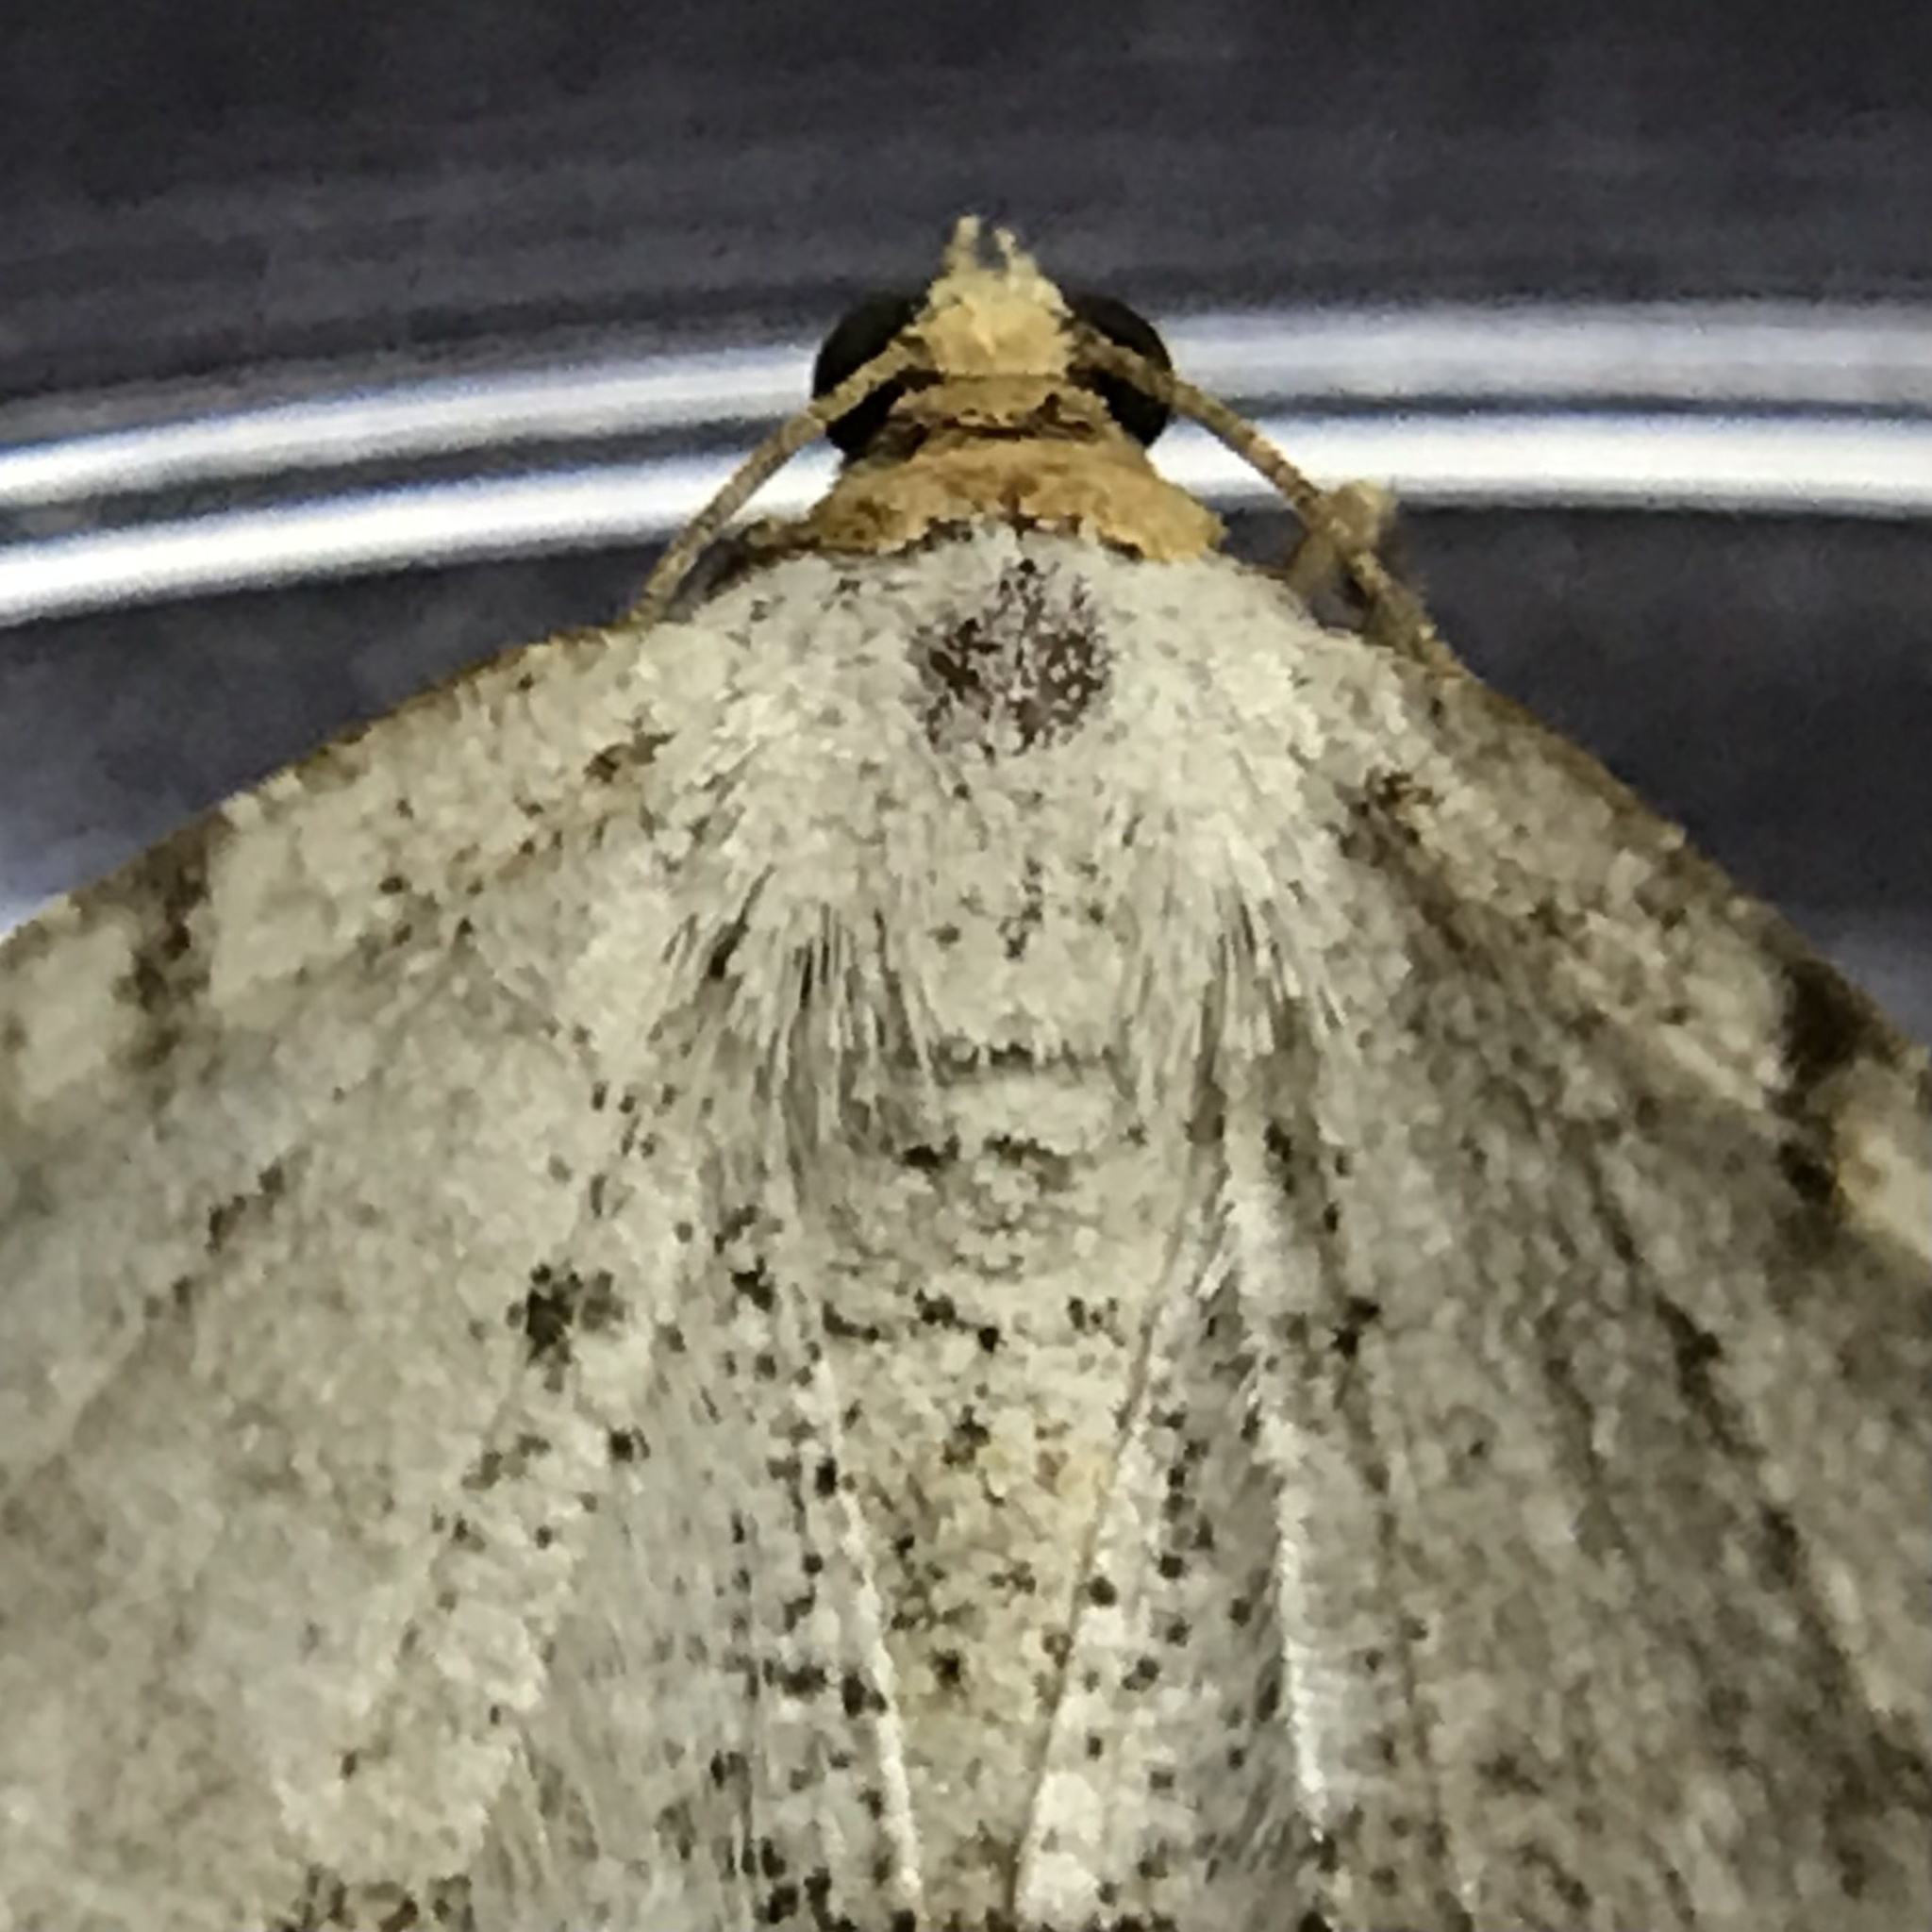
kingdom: Animalia
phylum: Arthropoda
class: Insecta
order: Lepidoptera
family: Geometridae
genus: Macaria
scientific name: Macaria bisignata
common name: Red-headed inchworm
